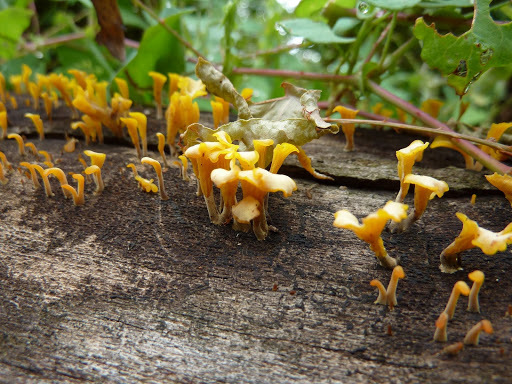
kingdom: Fungi
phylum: Basidiomycota
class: Dacrymycetes
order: Dacrymycetales
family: Dacrymycetaceae
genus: Dacrymyces
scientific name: Dacrymyces spathularius
